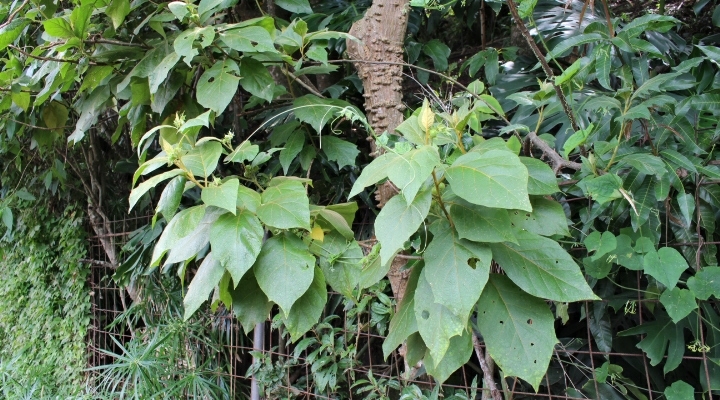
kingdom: Plantae
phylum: Tracheophyta
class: Magnoliopsida
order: Solanales
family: Solanaceae
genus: Solanum
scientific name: Solanum accrescens
